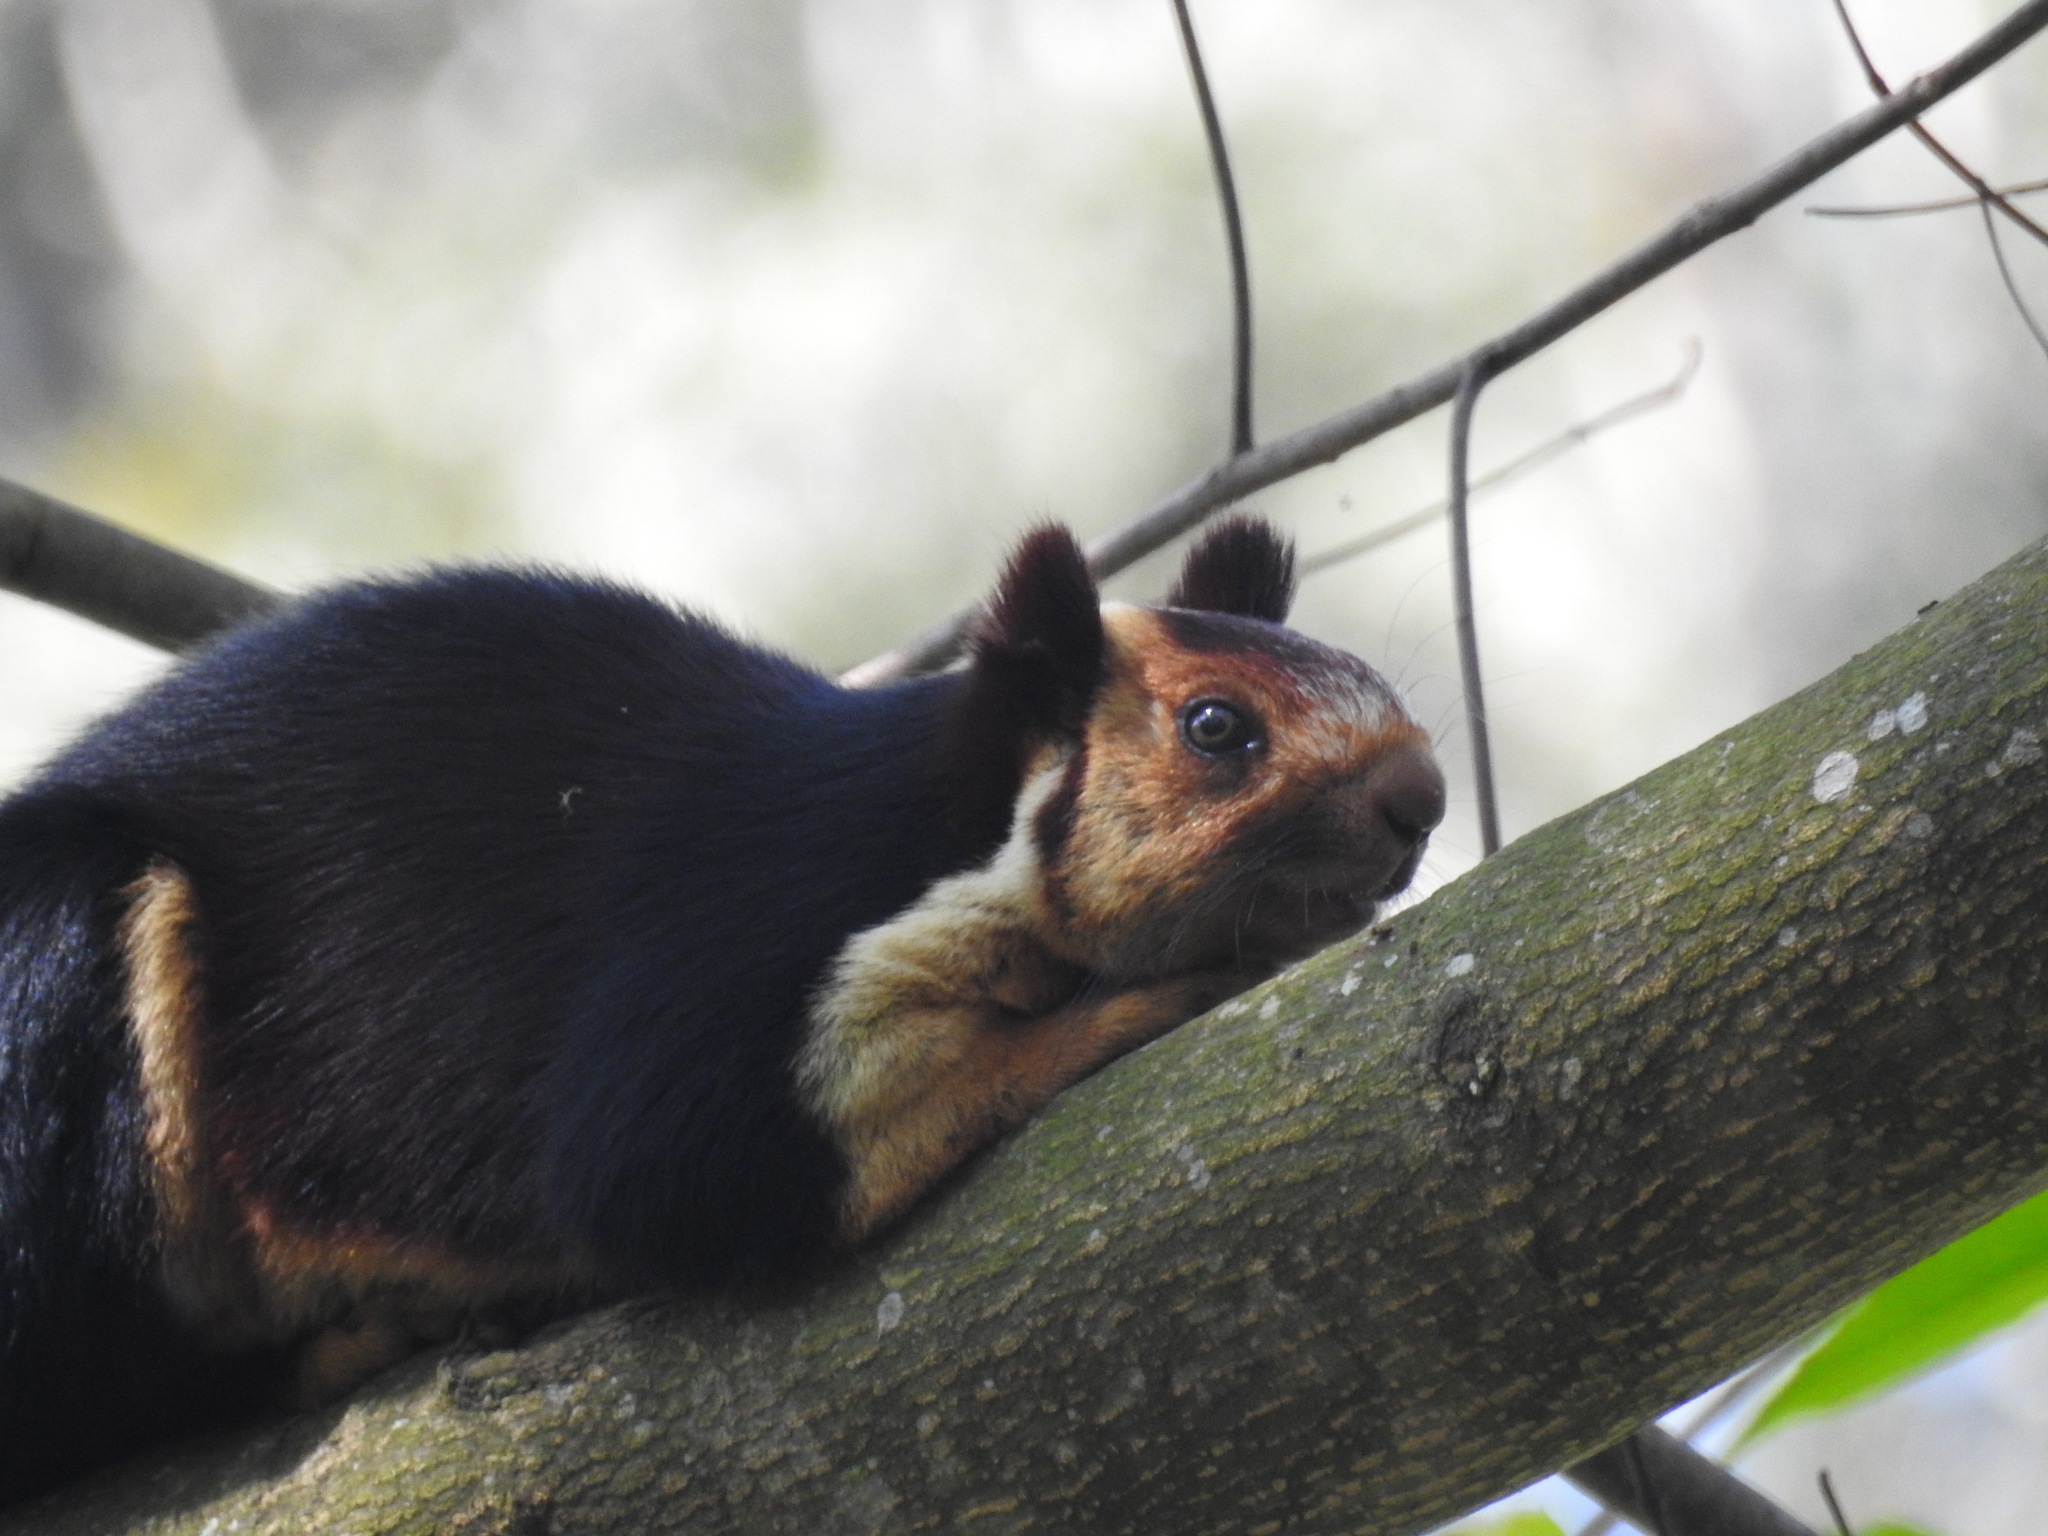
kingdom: Animalia
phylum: Chordata
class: Mammalia
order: Rodentia
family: Sciuridae
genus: Ratufa
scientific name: Ratufa indica
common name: Indian giant squirrel
